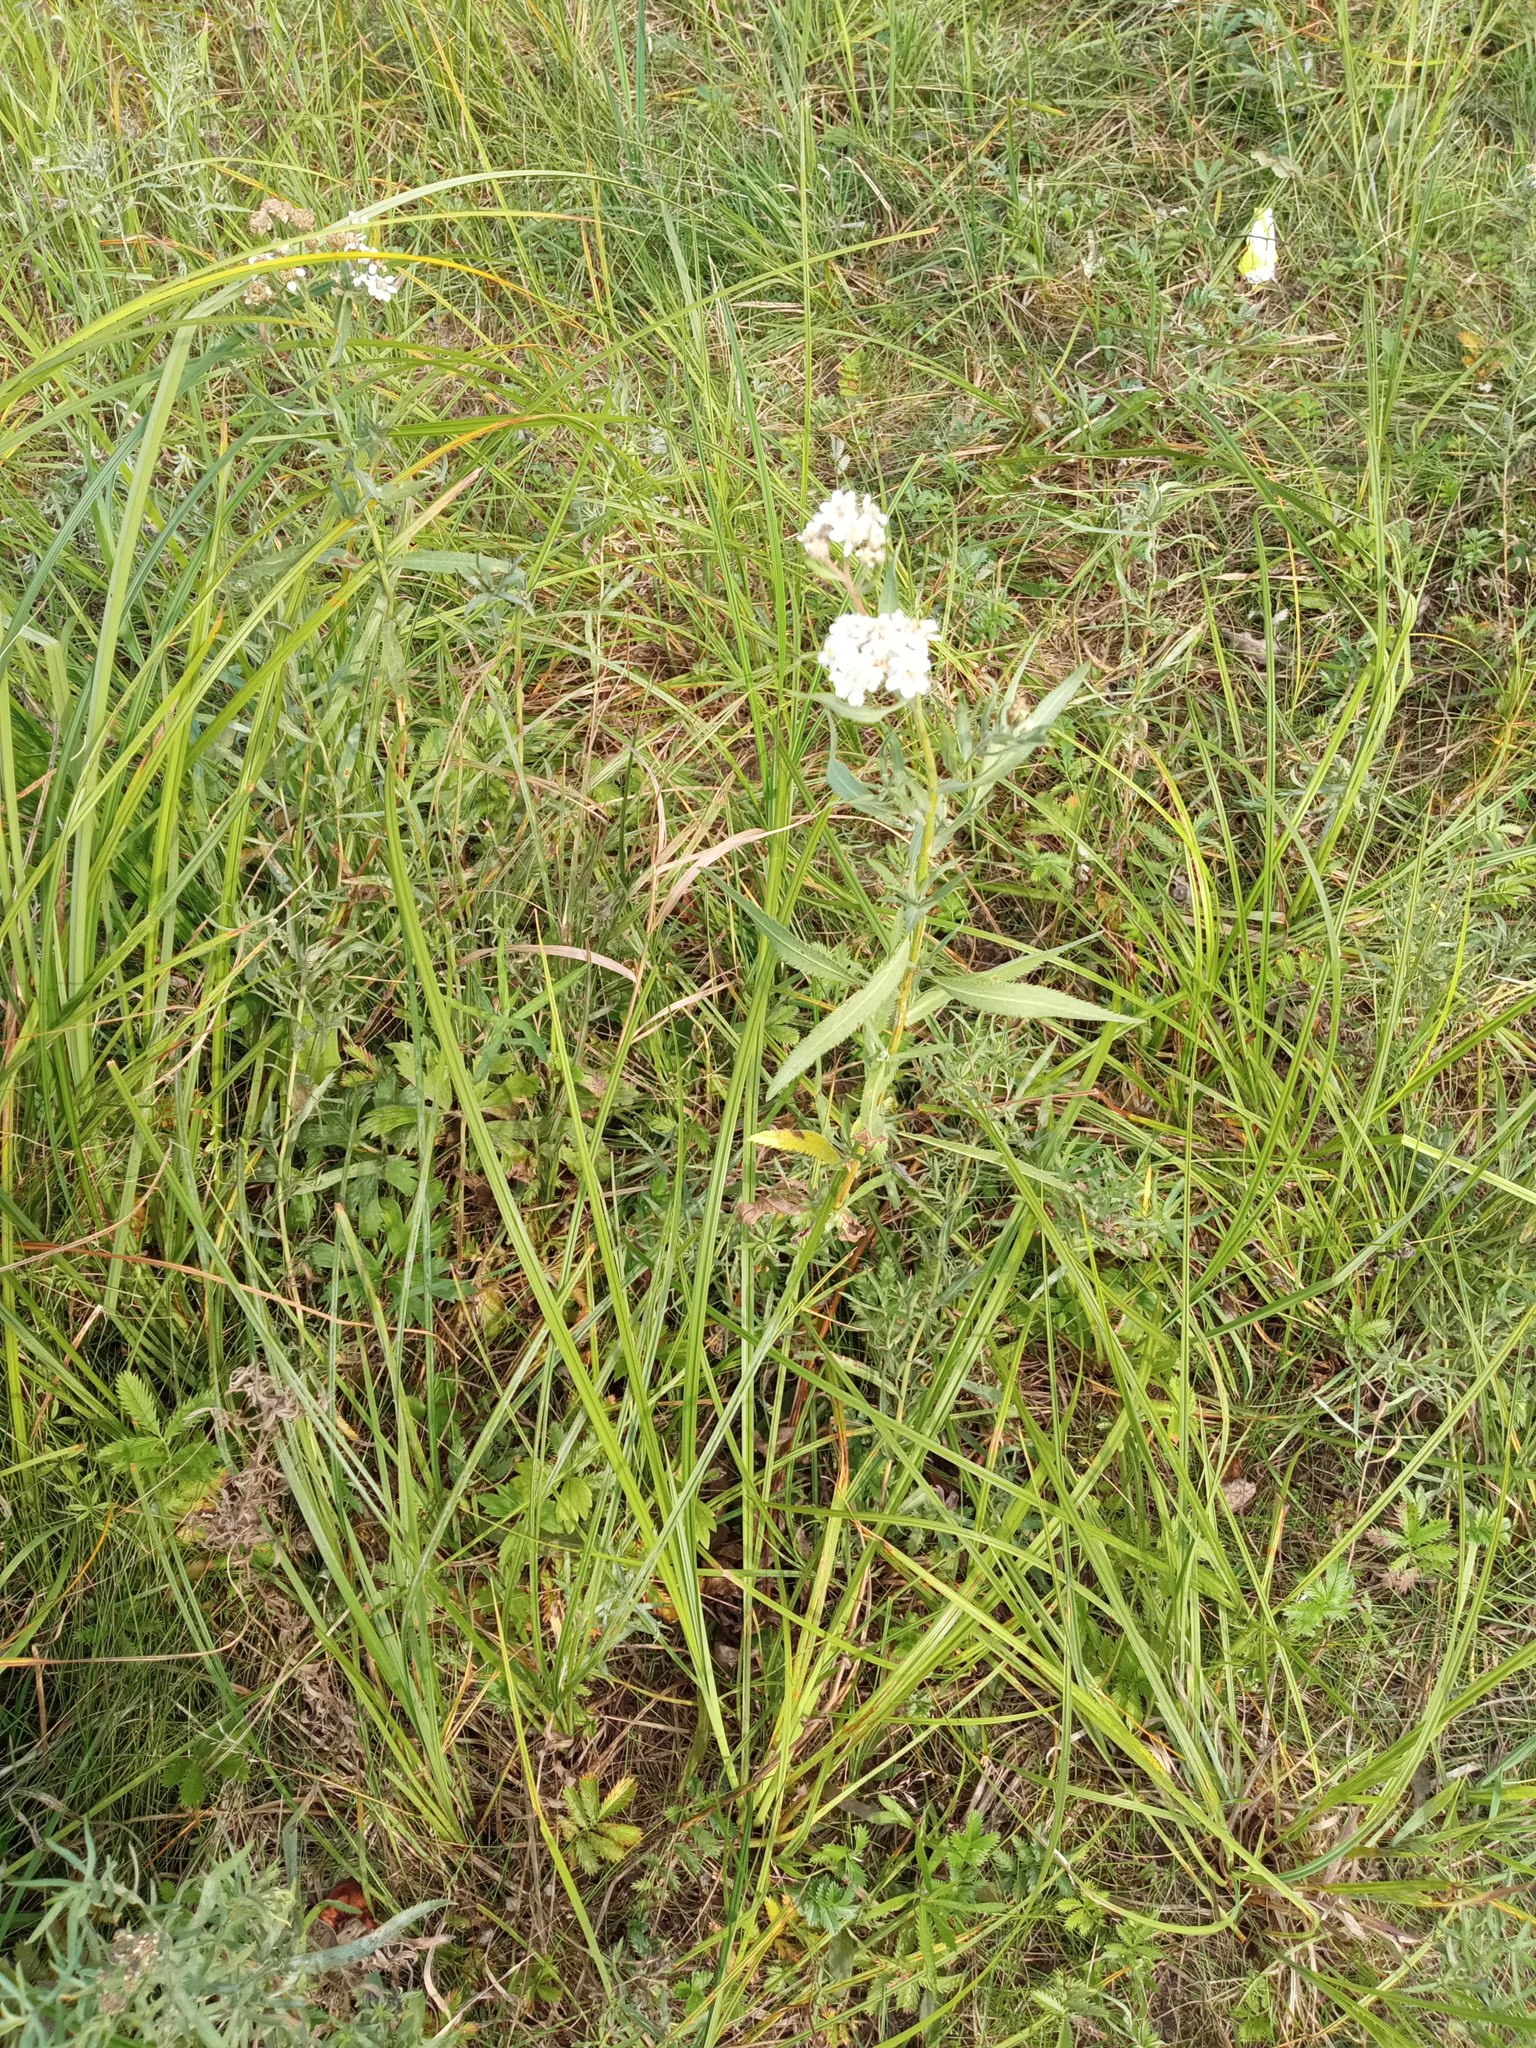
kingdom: Plantae
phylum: Tracheophyta
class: Magnoliopsida
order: Asterales
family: Asteraceae
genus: Achillea
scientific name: Achillea salicifolia
